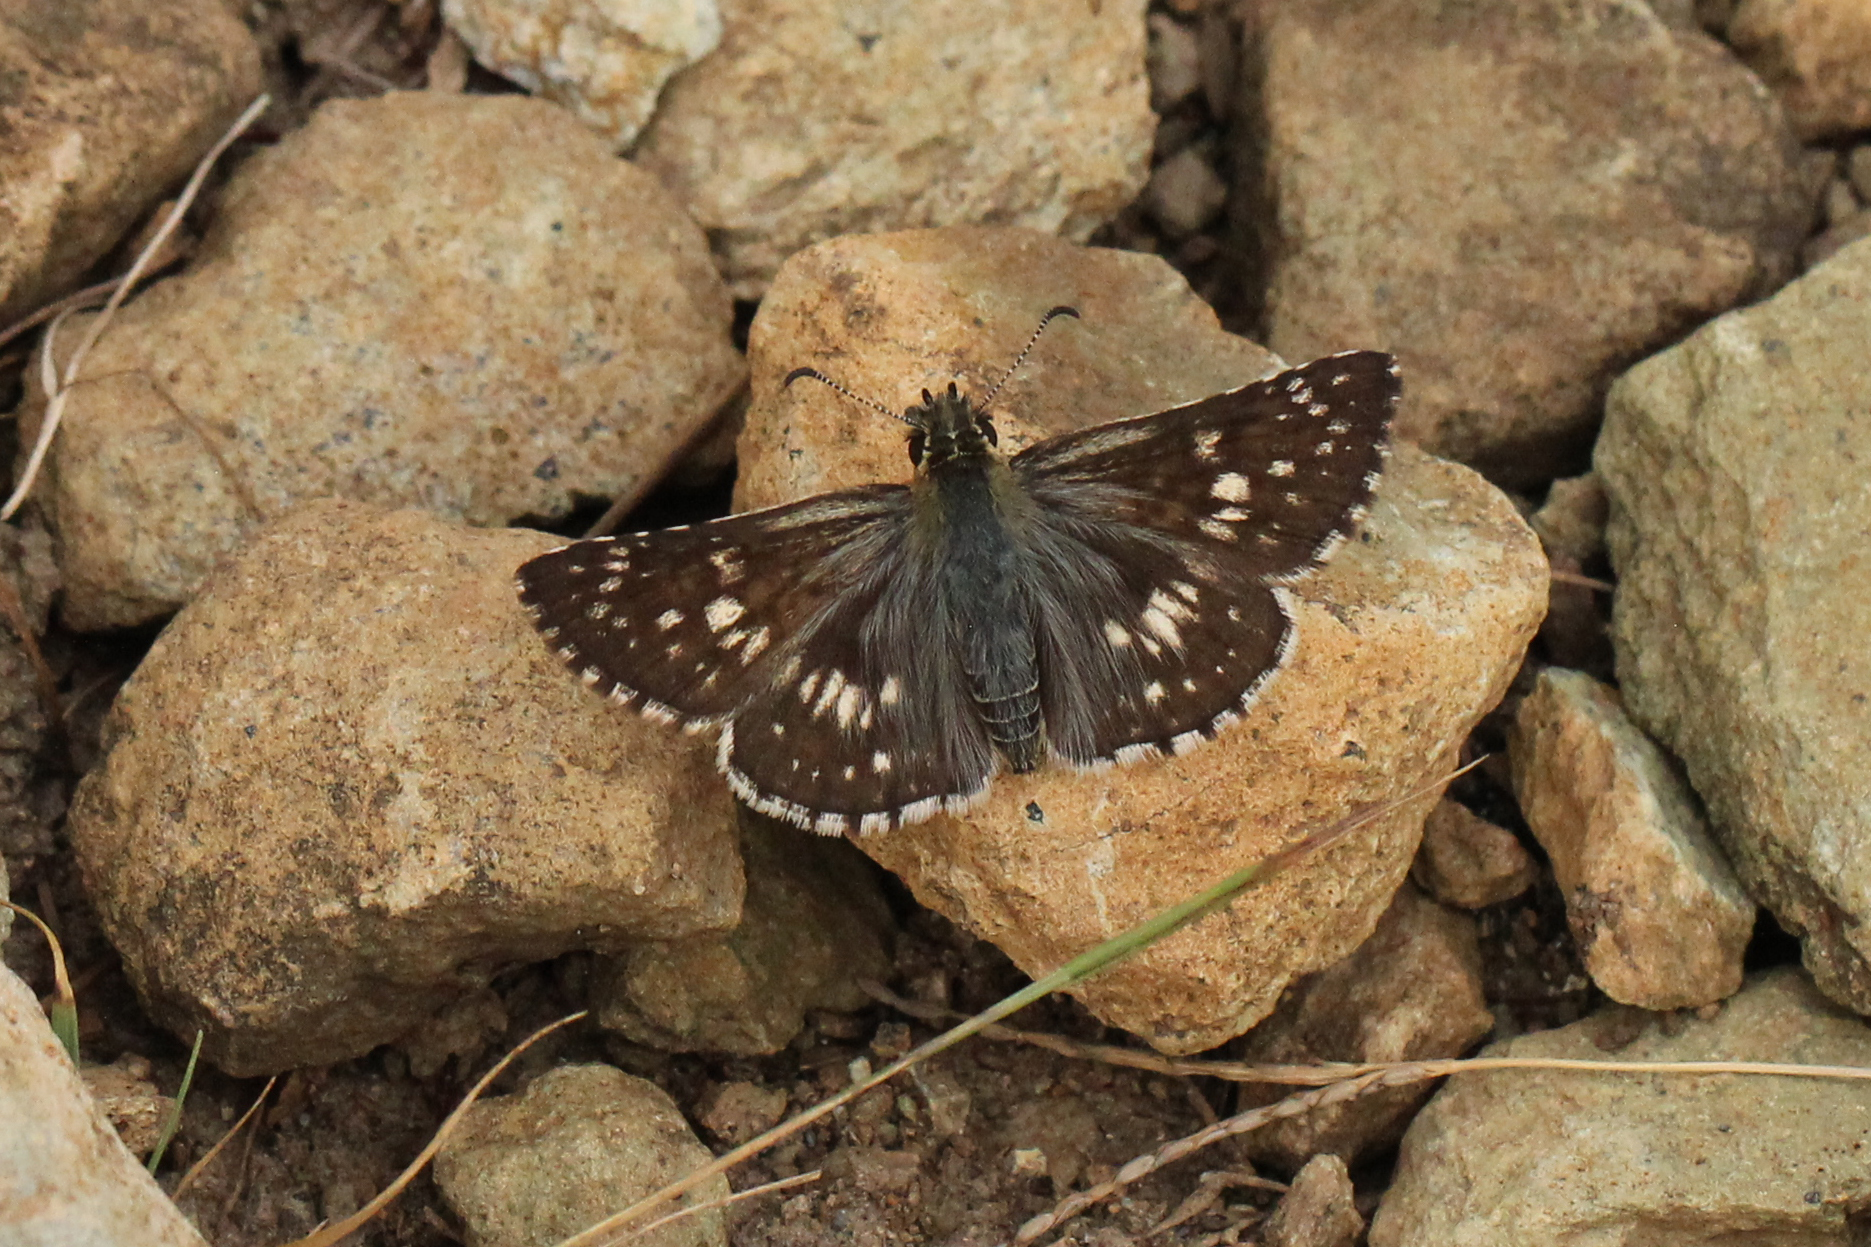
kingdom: Animalia
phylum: Arthropoda
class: Insecta
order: Lepidoptera
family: Hesperiidae
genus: Burnsius
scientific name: Burnsius communis
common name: Common checkered-skipper
